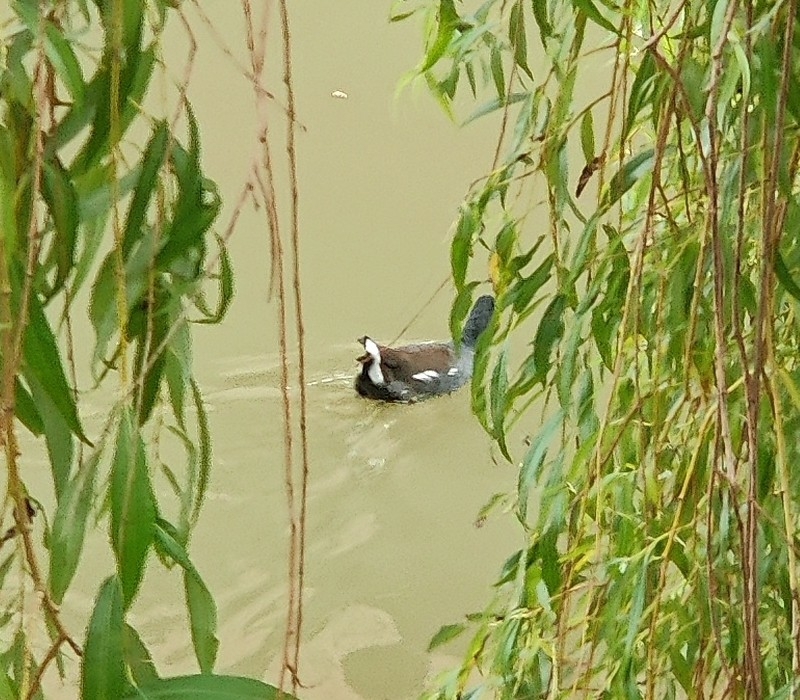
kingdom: Animalia
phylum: Chordata
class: Aves
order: Gruiformes
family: Rallidae
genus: Gallinula
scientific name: Gallinula chloropus
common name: Common moorhen
